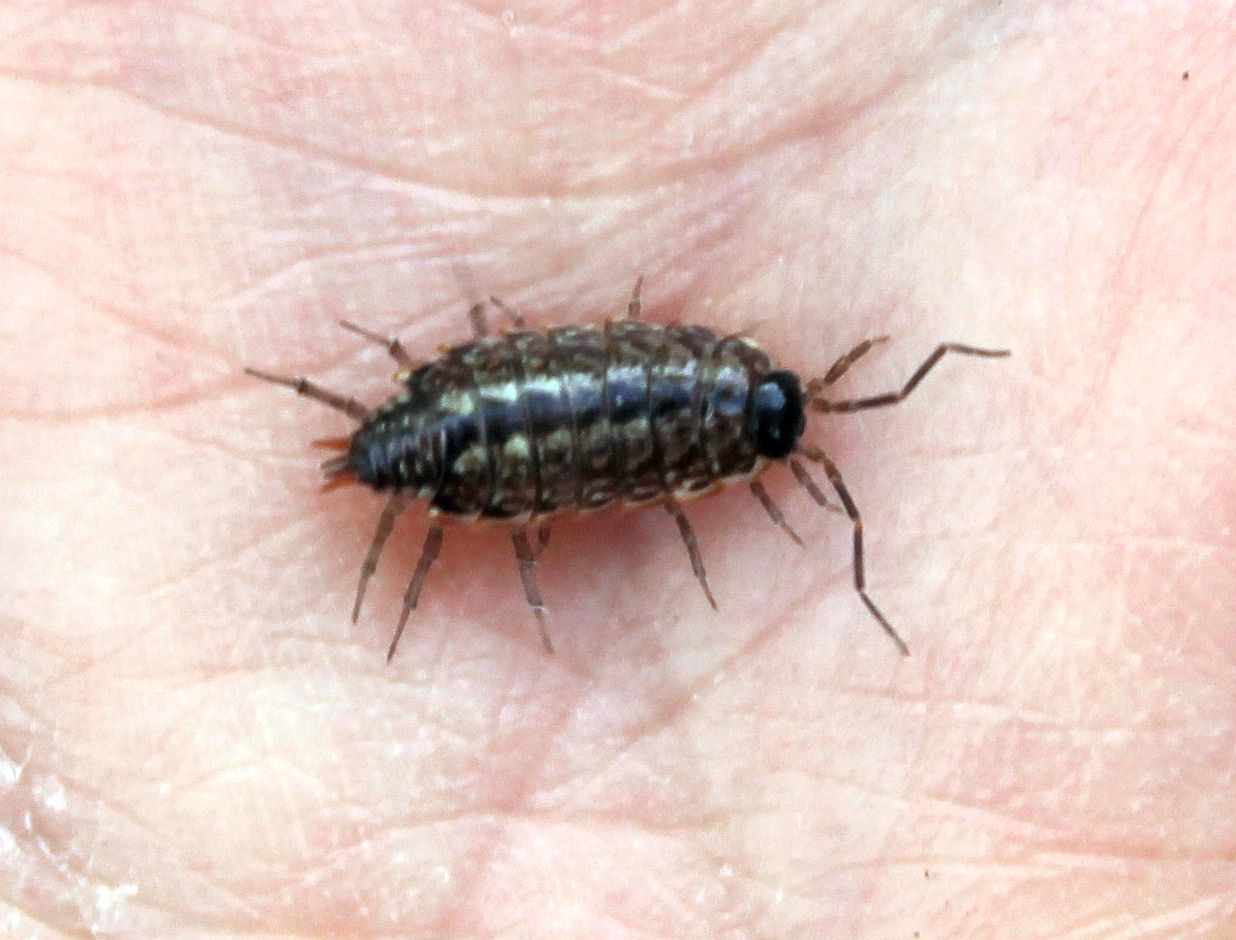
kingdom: Animalia
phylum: Arthropoda
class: Malacostraca
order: Isopoda
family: Philosciidae
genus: Philoscia
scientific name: Philoscia muscorum
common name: Common striped woodlouse
